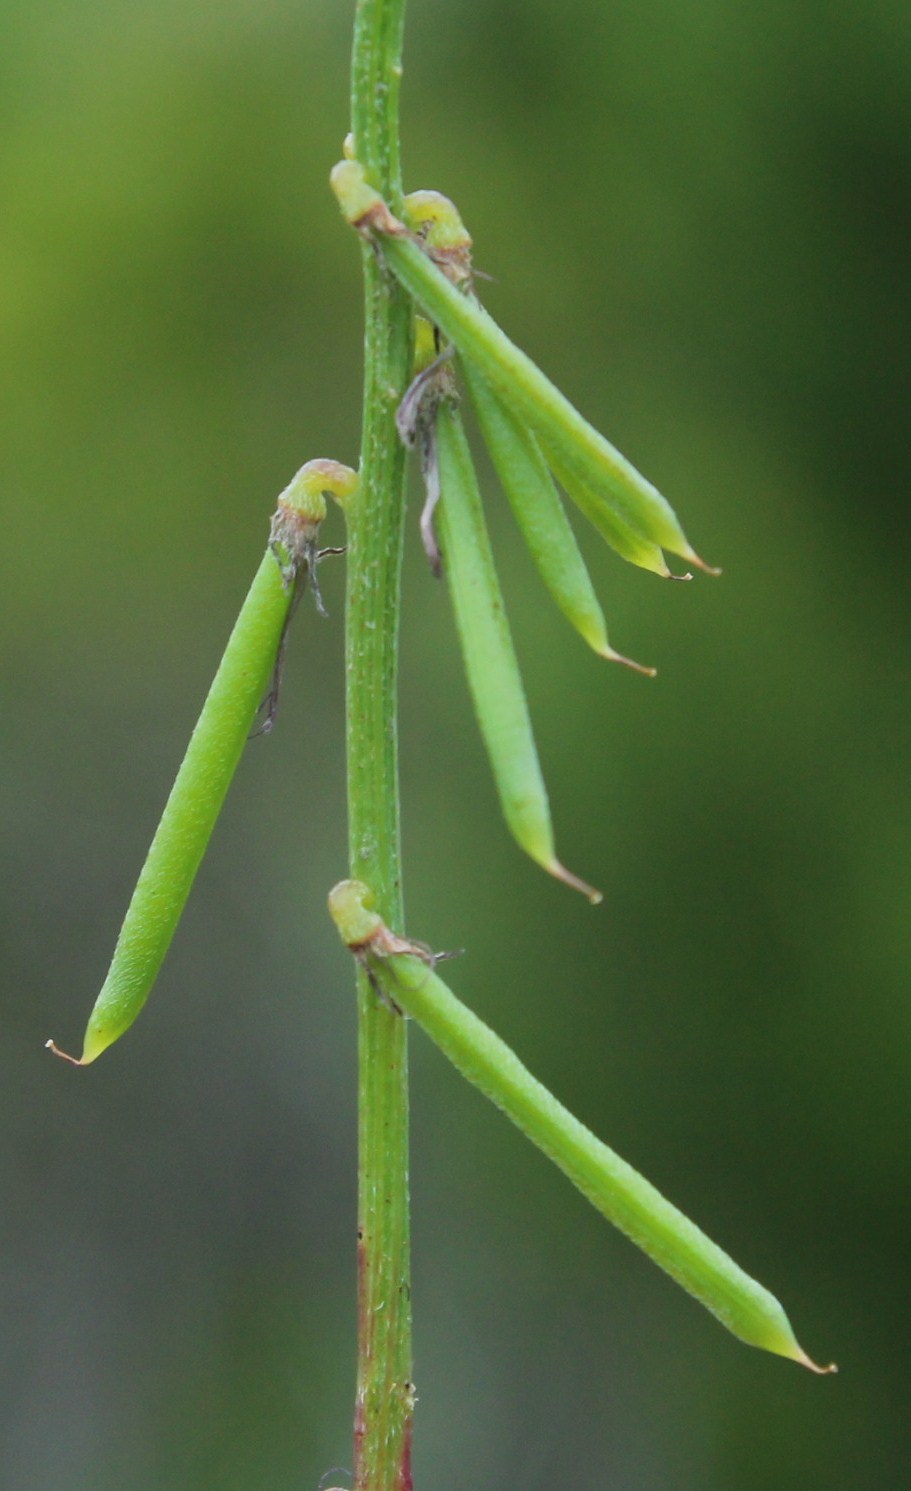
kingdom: Plantae
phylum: Tracheophyta
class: Magnoliopsida
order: Fabales
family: Fabaceae
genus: Indigofera
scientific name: Indigofera erecta
